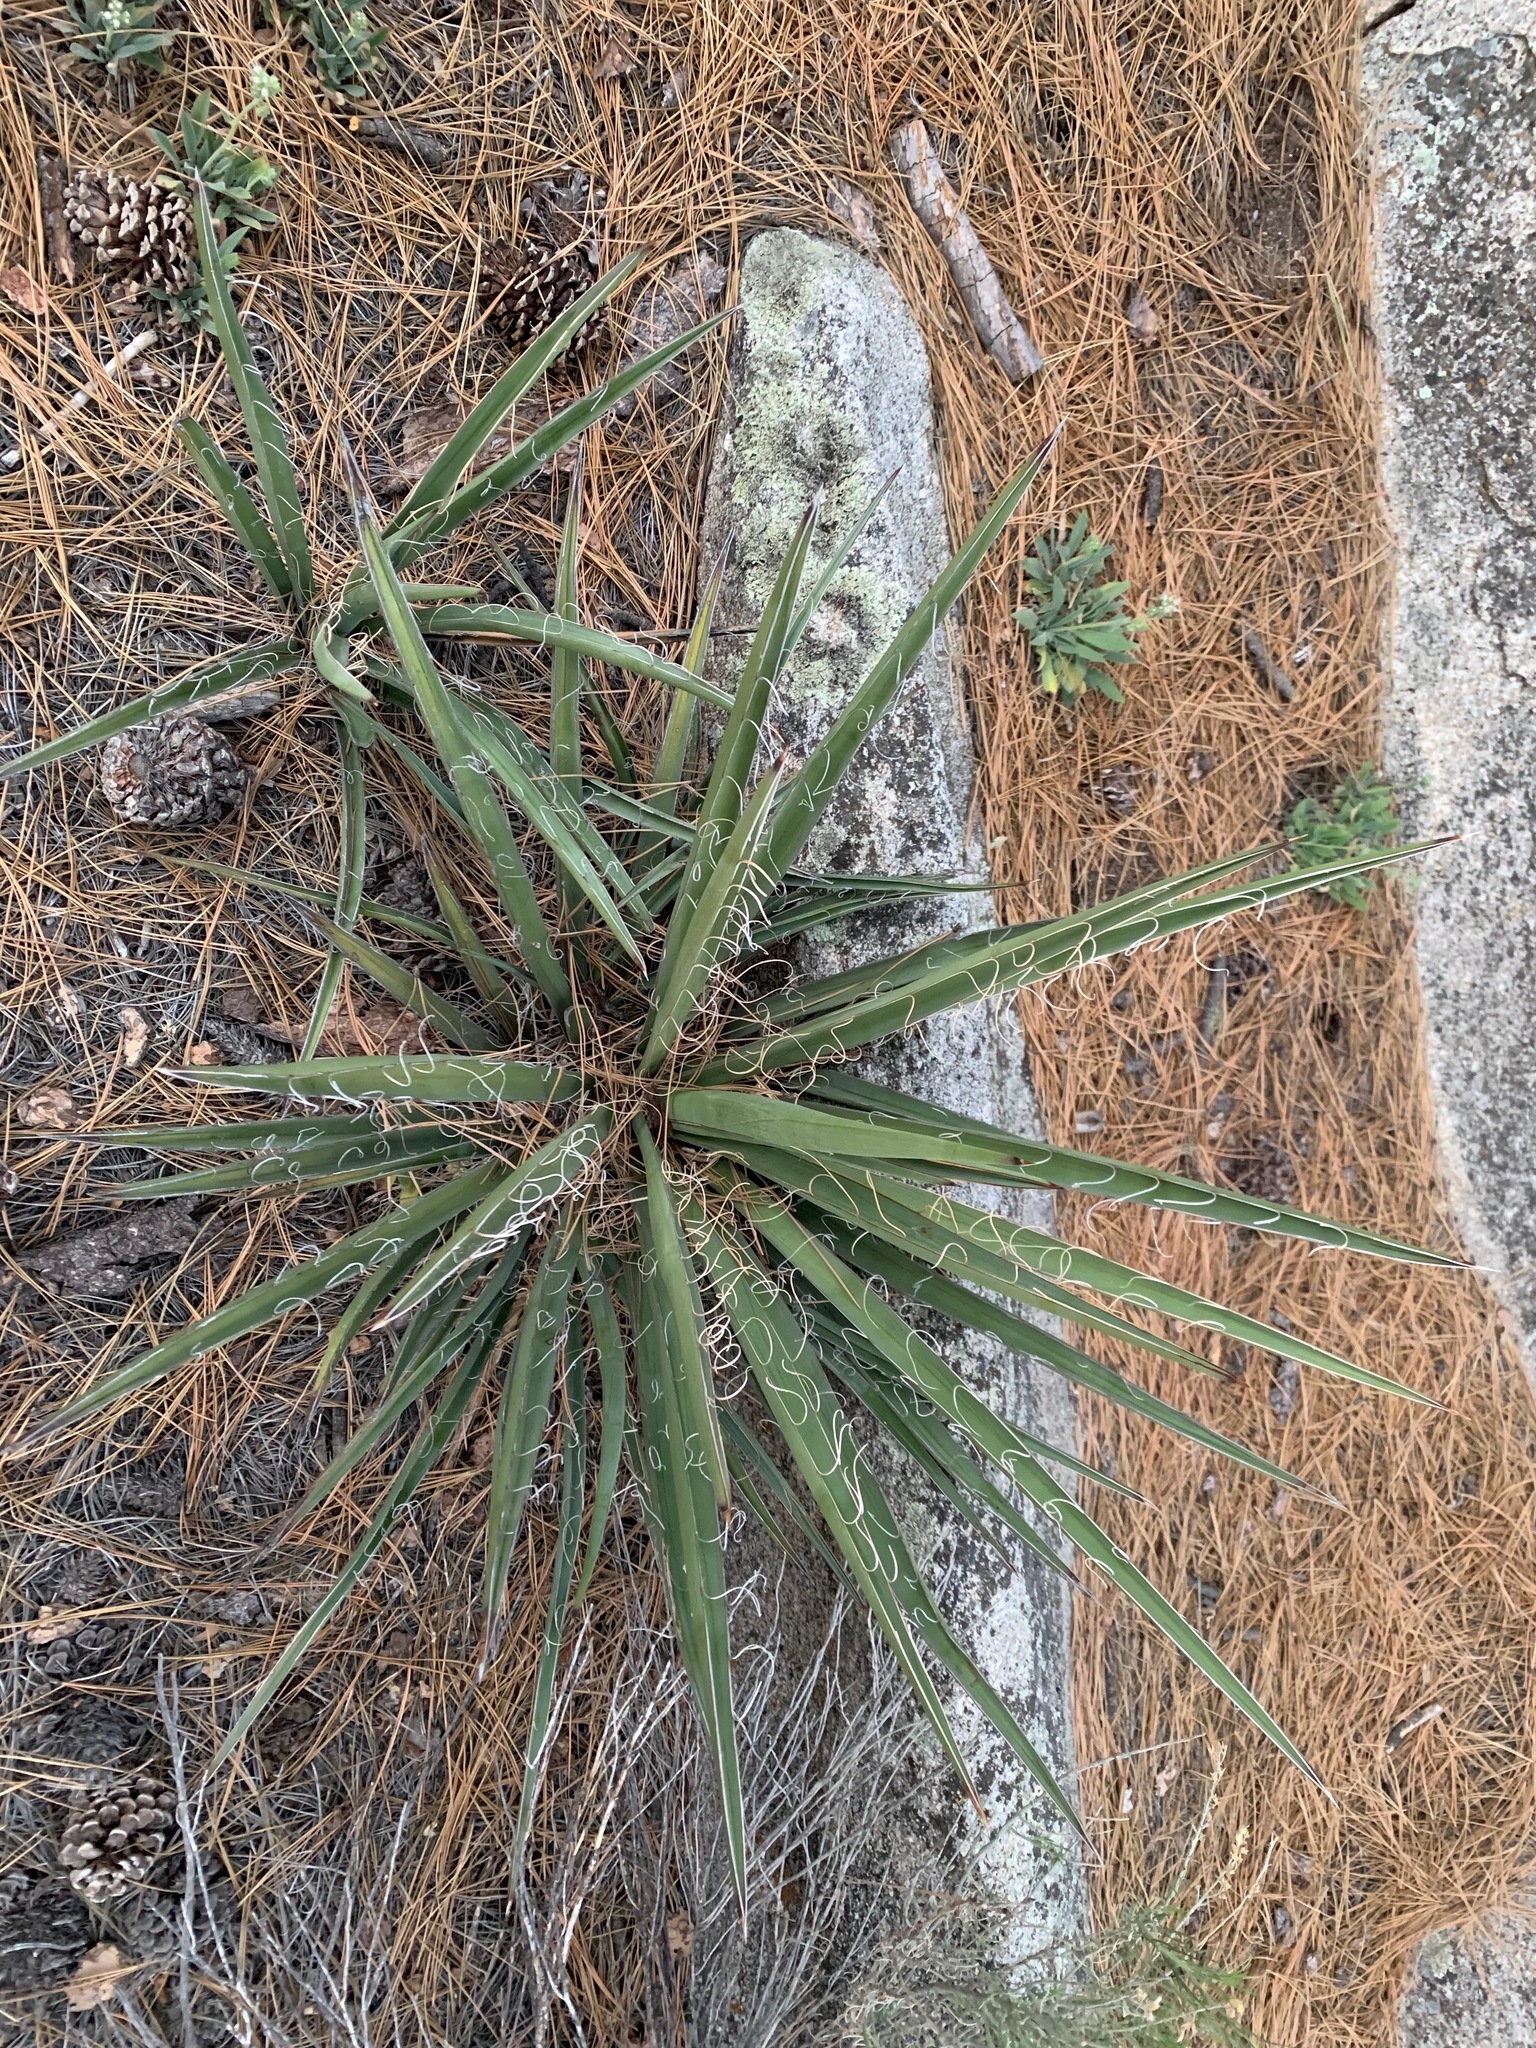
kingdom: Plantae
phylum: Tracheophyta
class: Liliopsida
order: Asparagales
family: Asparagaceae
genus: Yucca
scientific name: Yucca schidigera
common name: Mojave yucca
